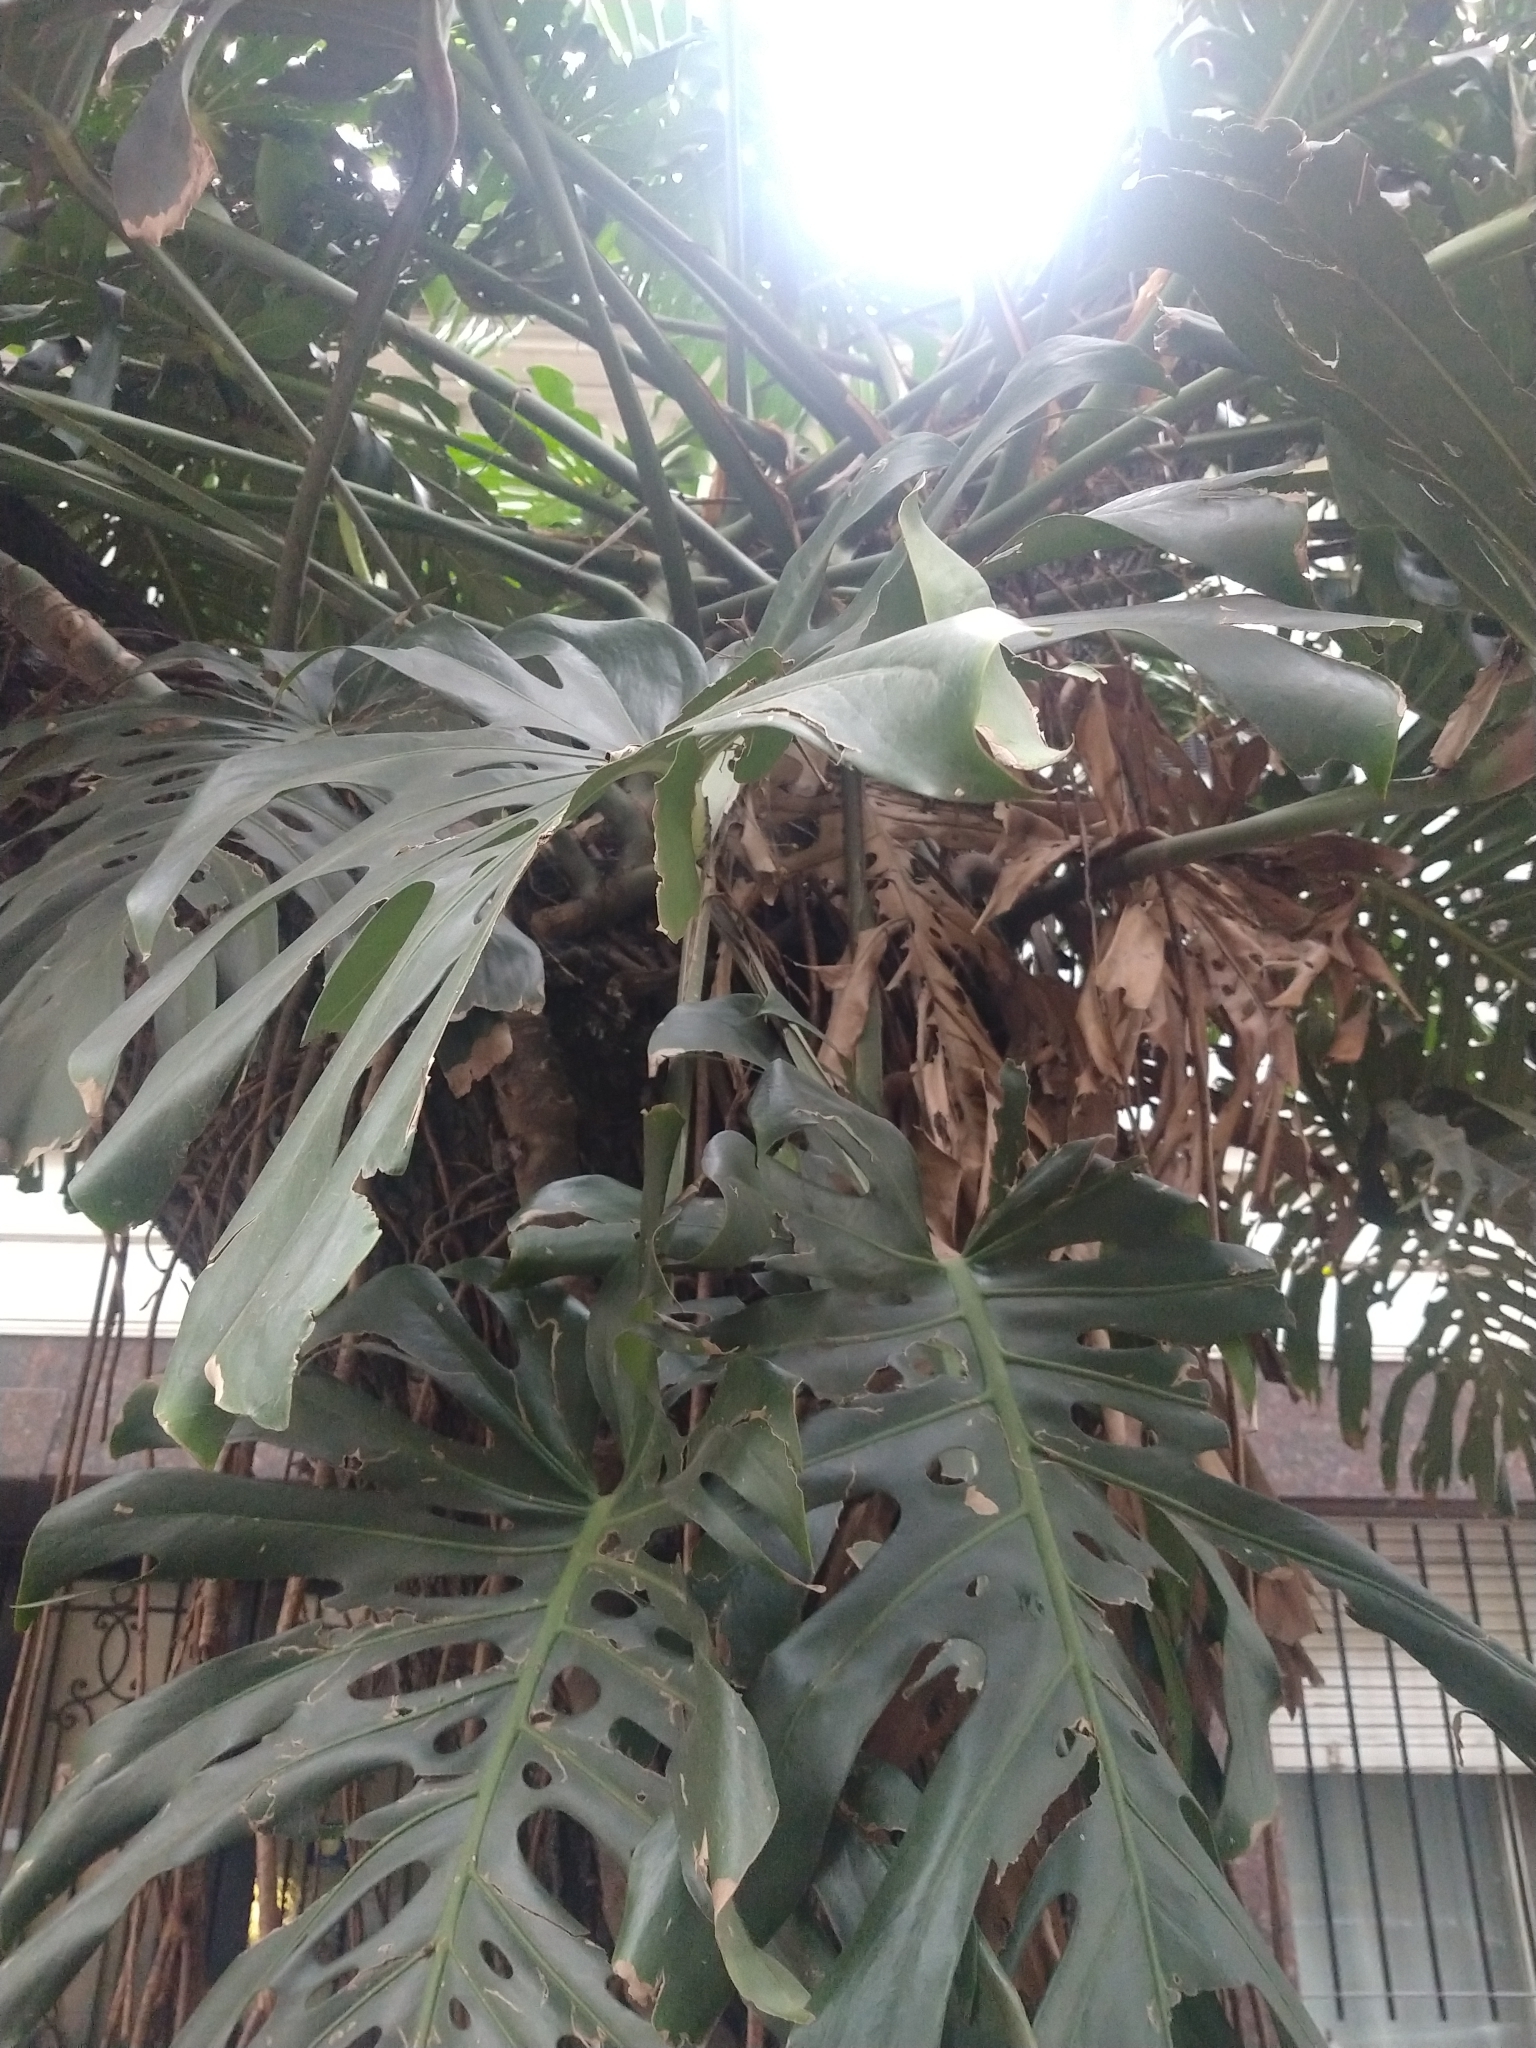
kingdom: Plantae
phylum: Tracheophyta
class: Liliopsida
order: Alismatales
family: Araceae
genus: Monstera
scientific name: Monstera deliciosa
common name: Cut-leaf-philodendron
